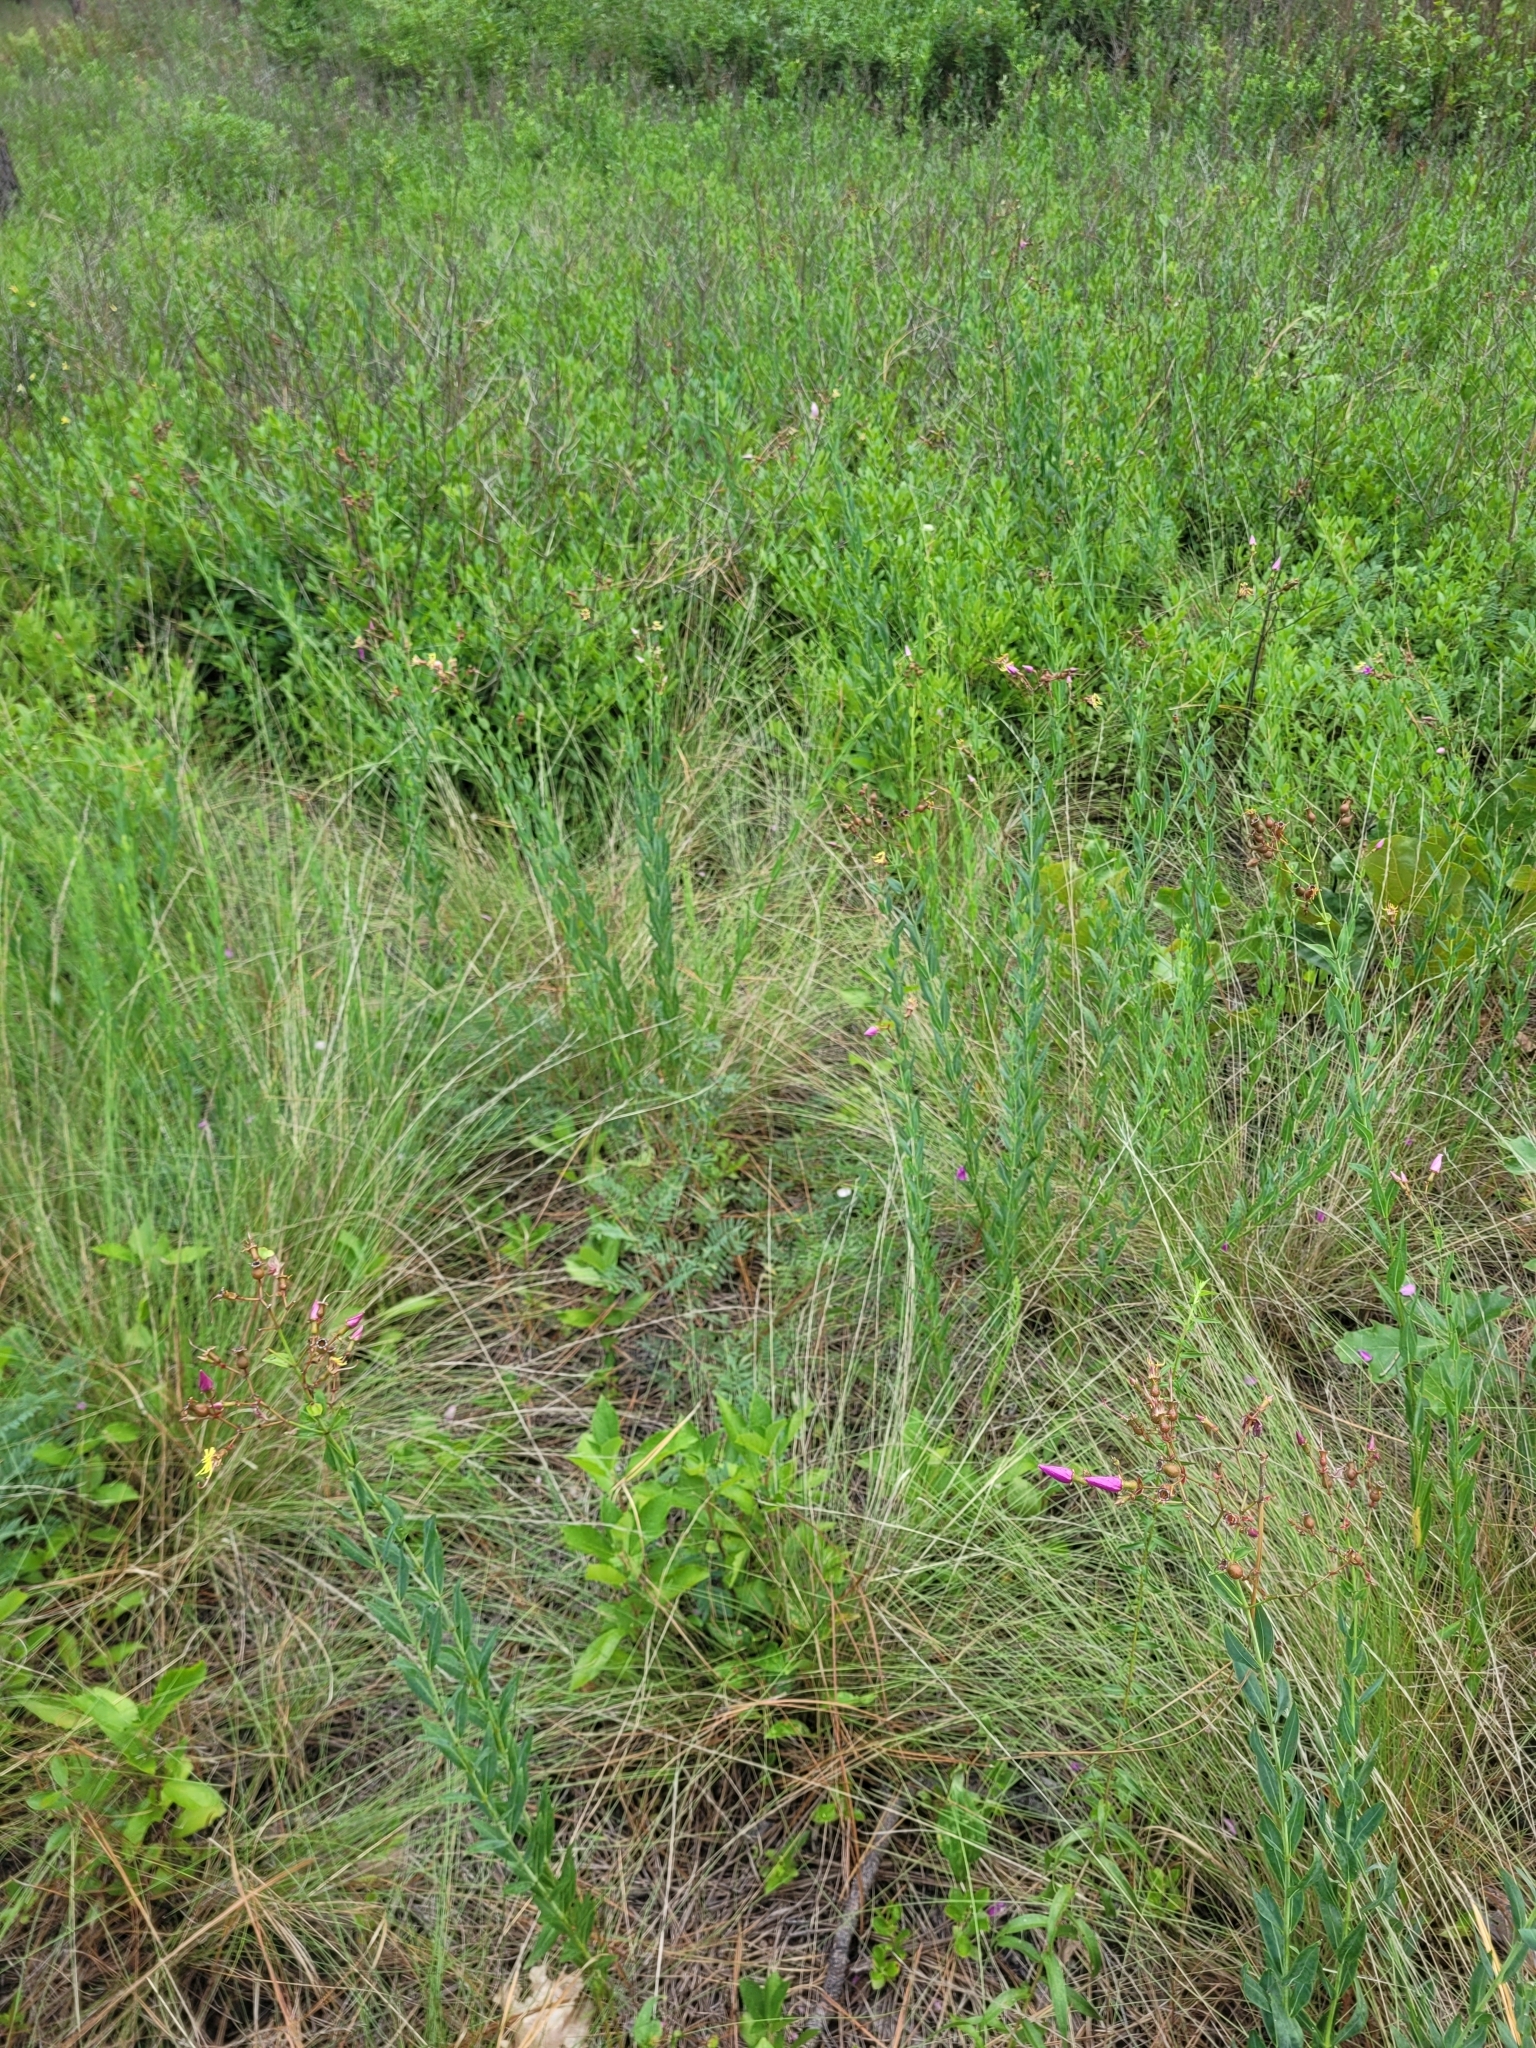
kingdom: Plantae
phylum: Tracheophyta
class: Magnoliopsida
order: Myrtales
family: Melastomataceae
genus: Rhexia
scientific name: Rhexia alifanus
